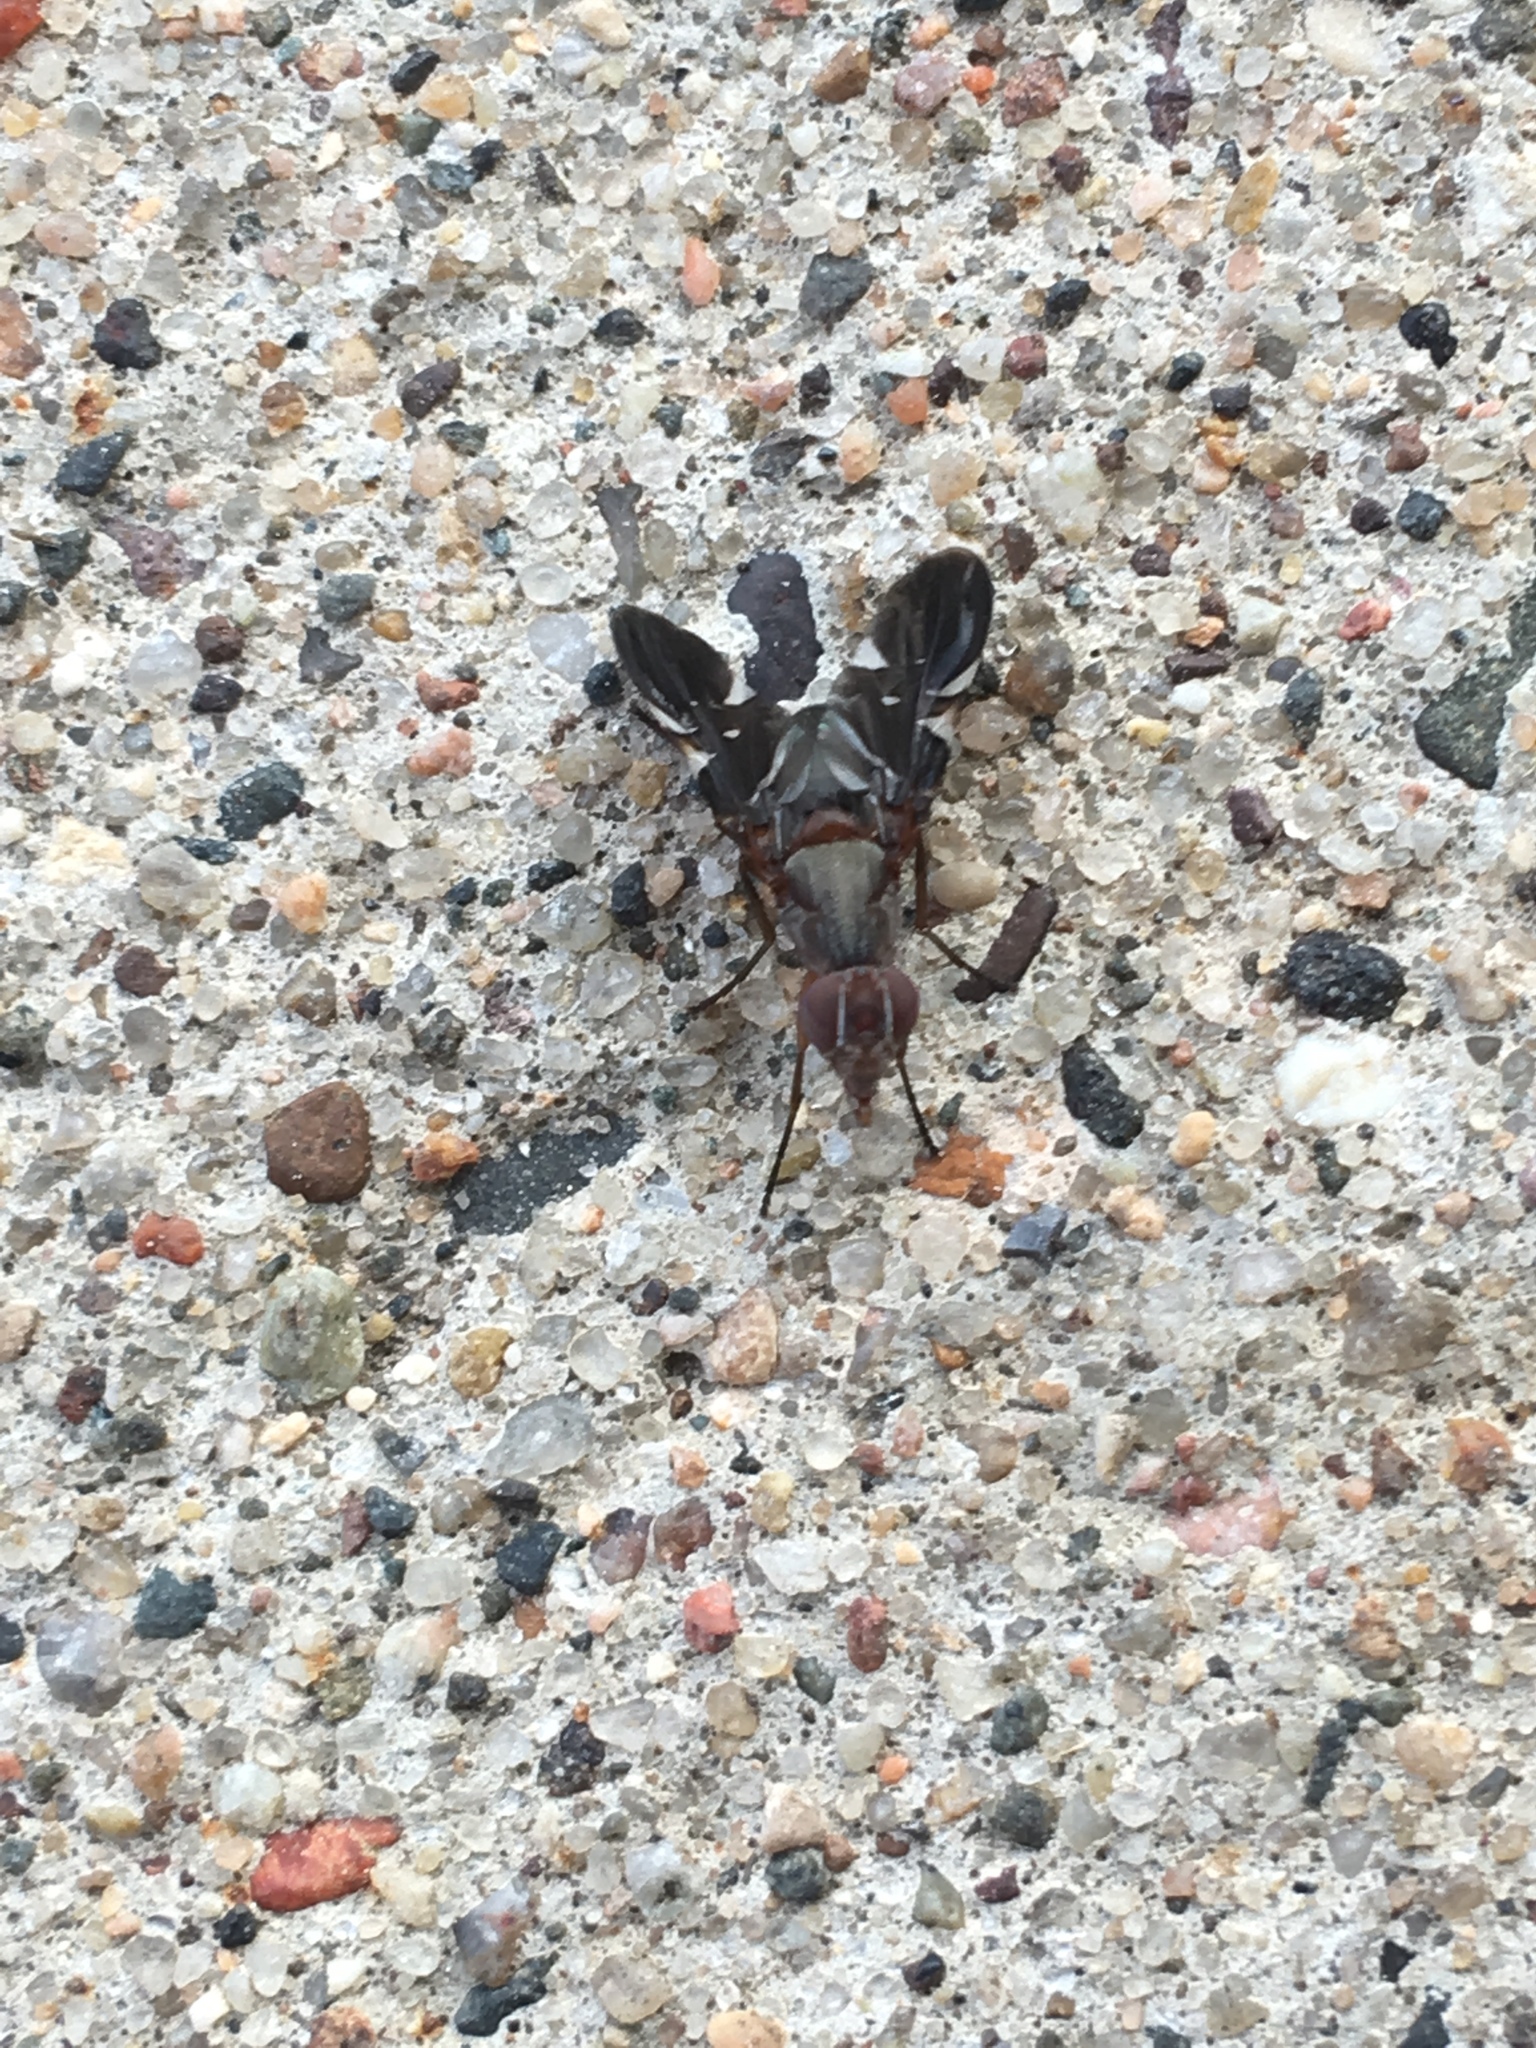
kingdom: Animalia
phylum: Arthropoda
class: Insecta
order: Diptera
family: Ulidiidae
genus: Delphinia
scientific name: Delphinia picta
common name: Common picture-winged fly
